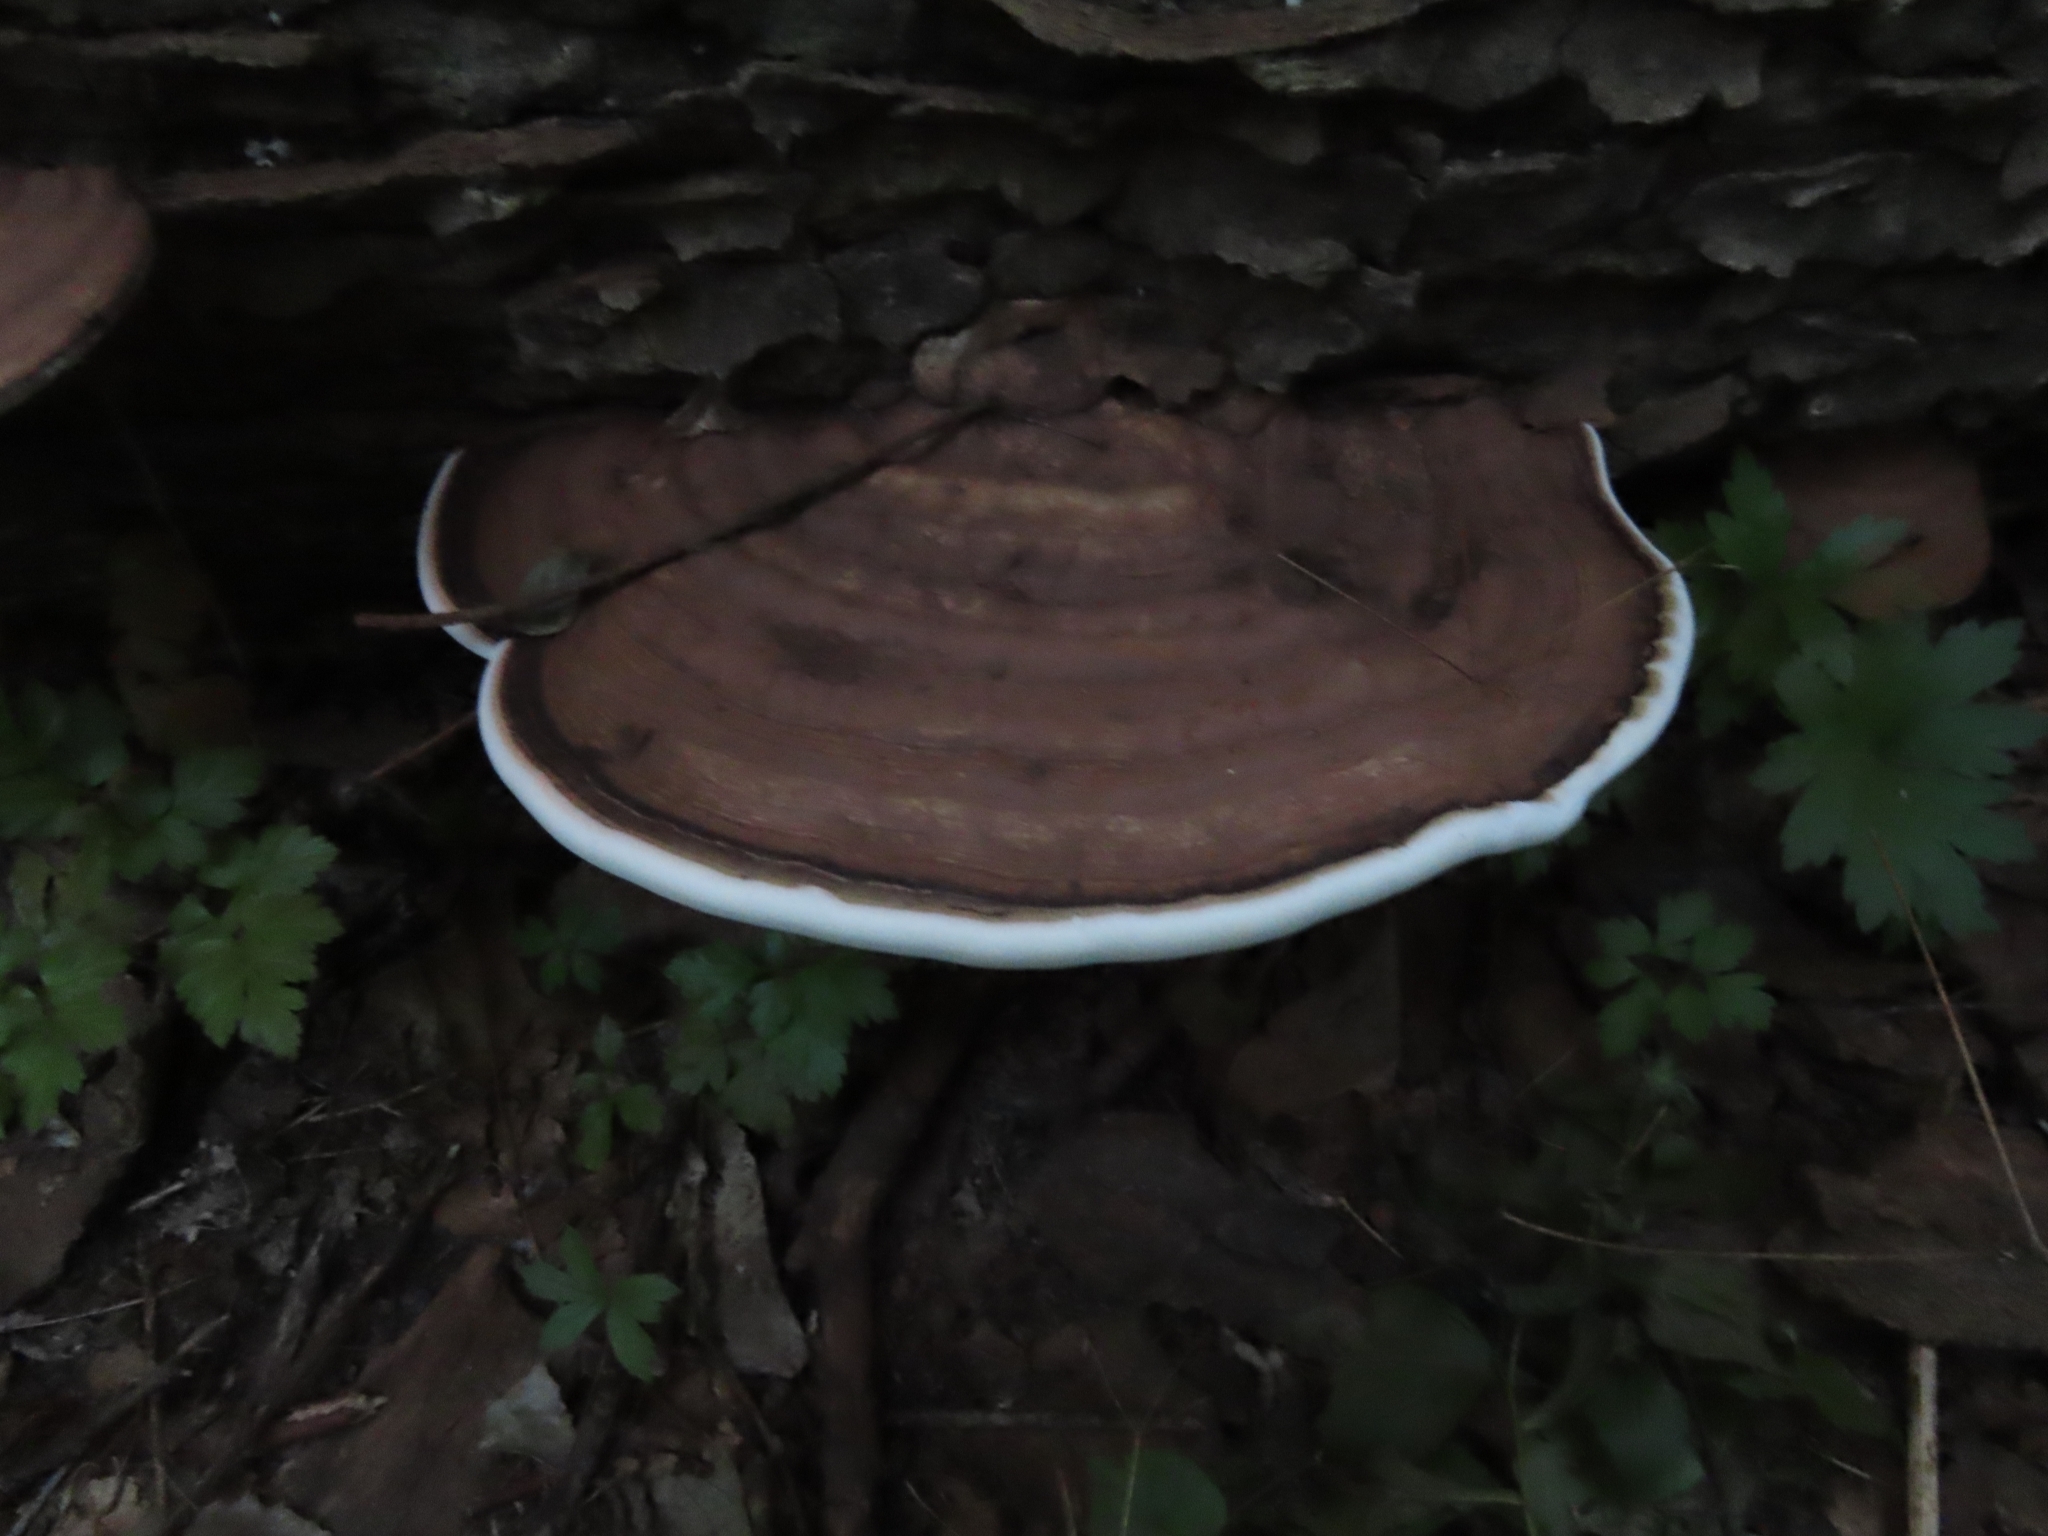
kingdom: Fungi
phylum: Basidiomycota
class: Agaricomycetes
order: Polyporales
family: Polyporaceae
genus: Ganoderma
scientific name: Ganoderma applanatum
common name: Artist's bracket
